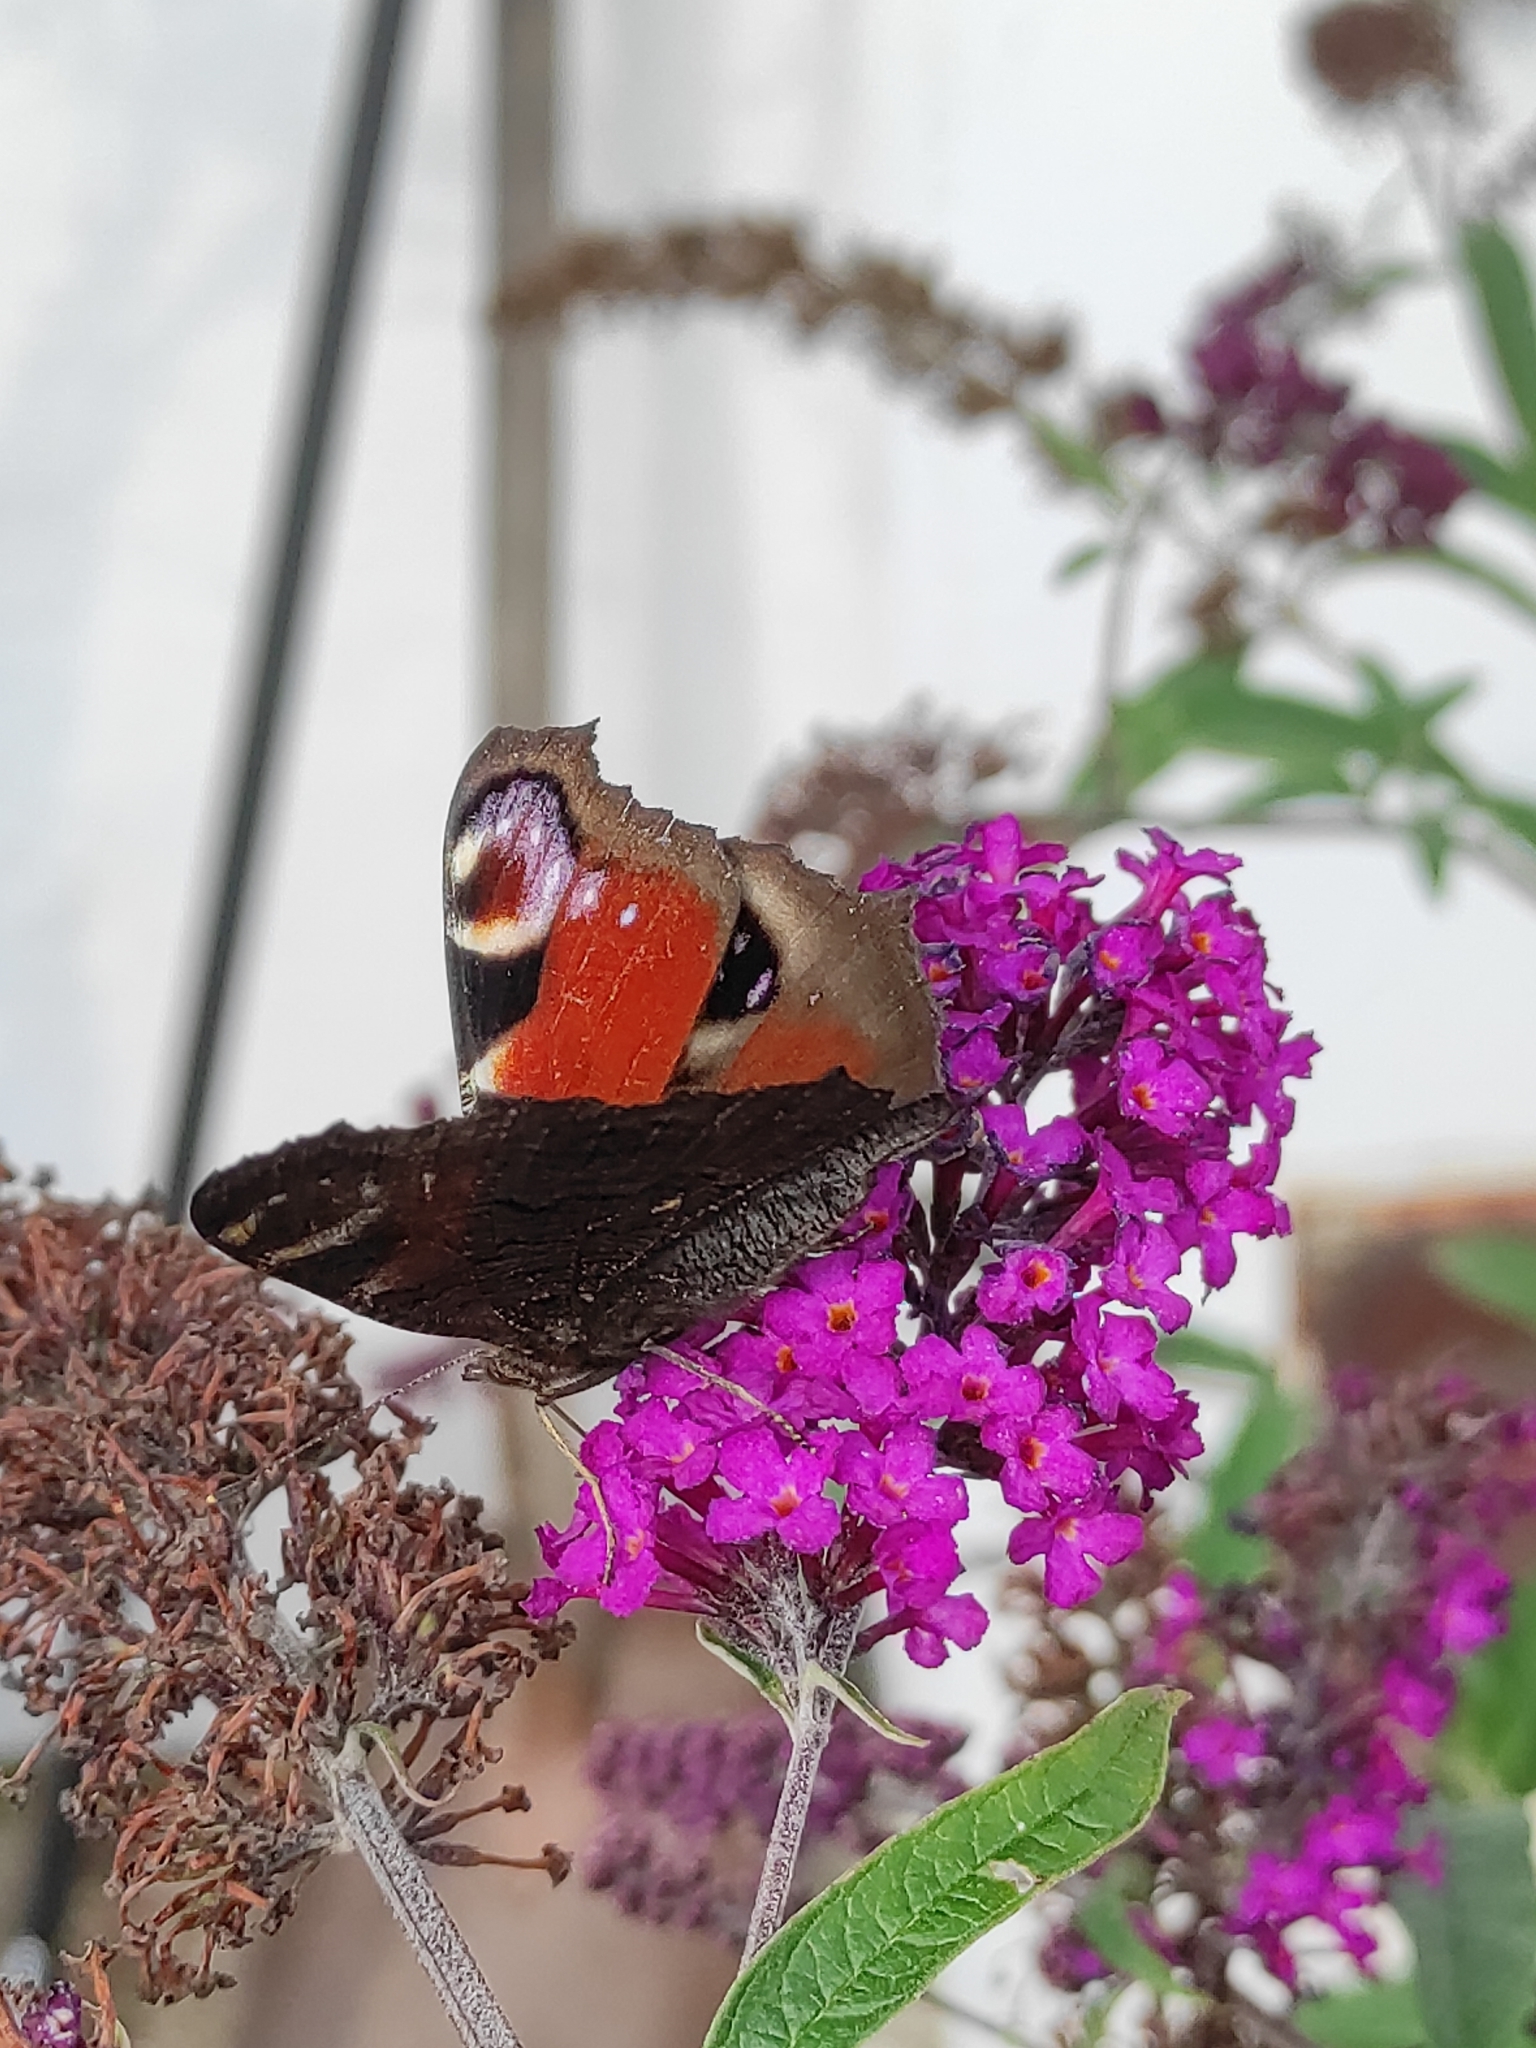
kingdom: Animalia
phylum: Arthropoda
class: Insecta
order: Lepidoptera
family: Nymphalidae
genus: Aglais
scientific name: Aglais io
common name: Peacock
